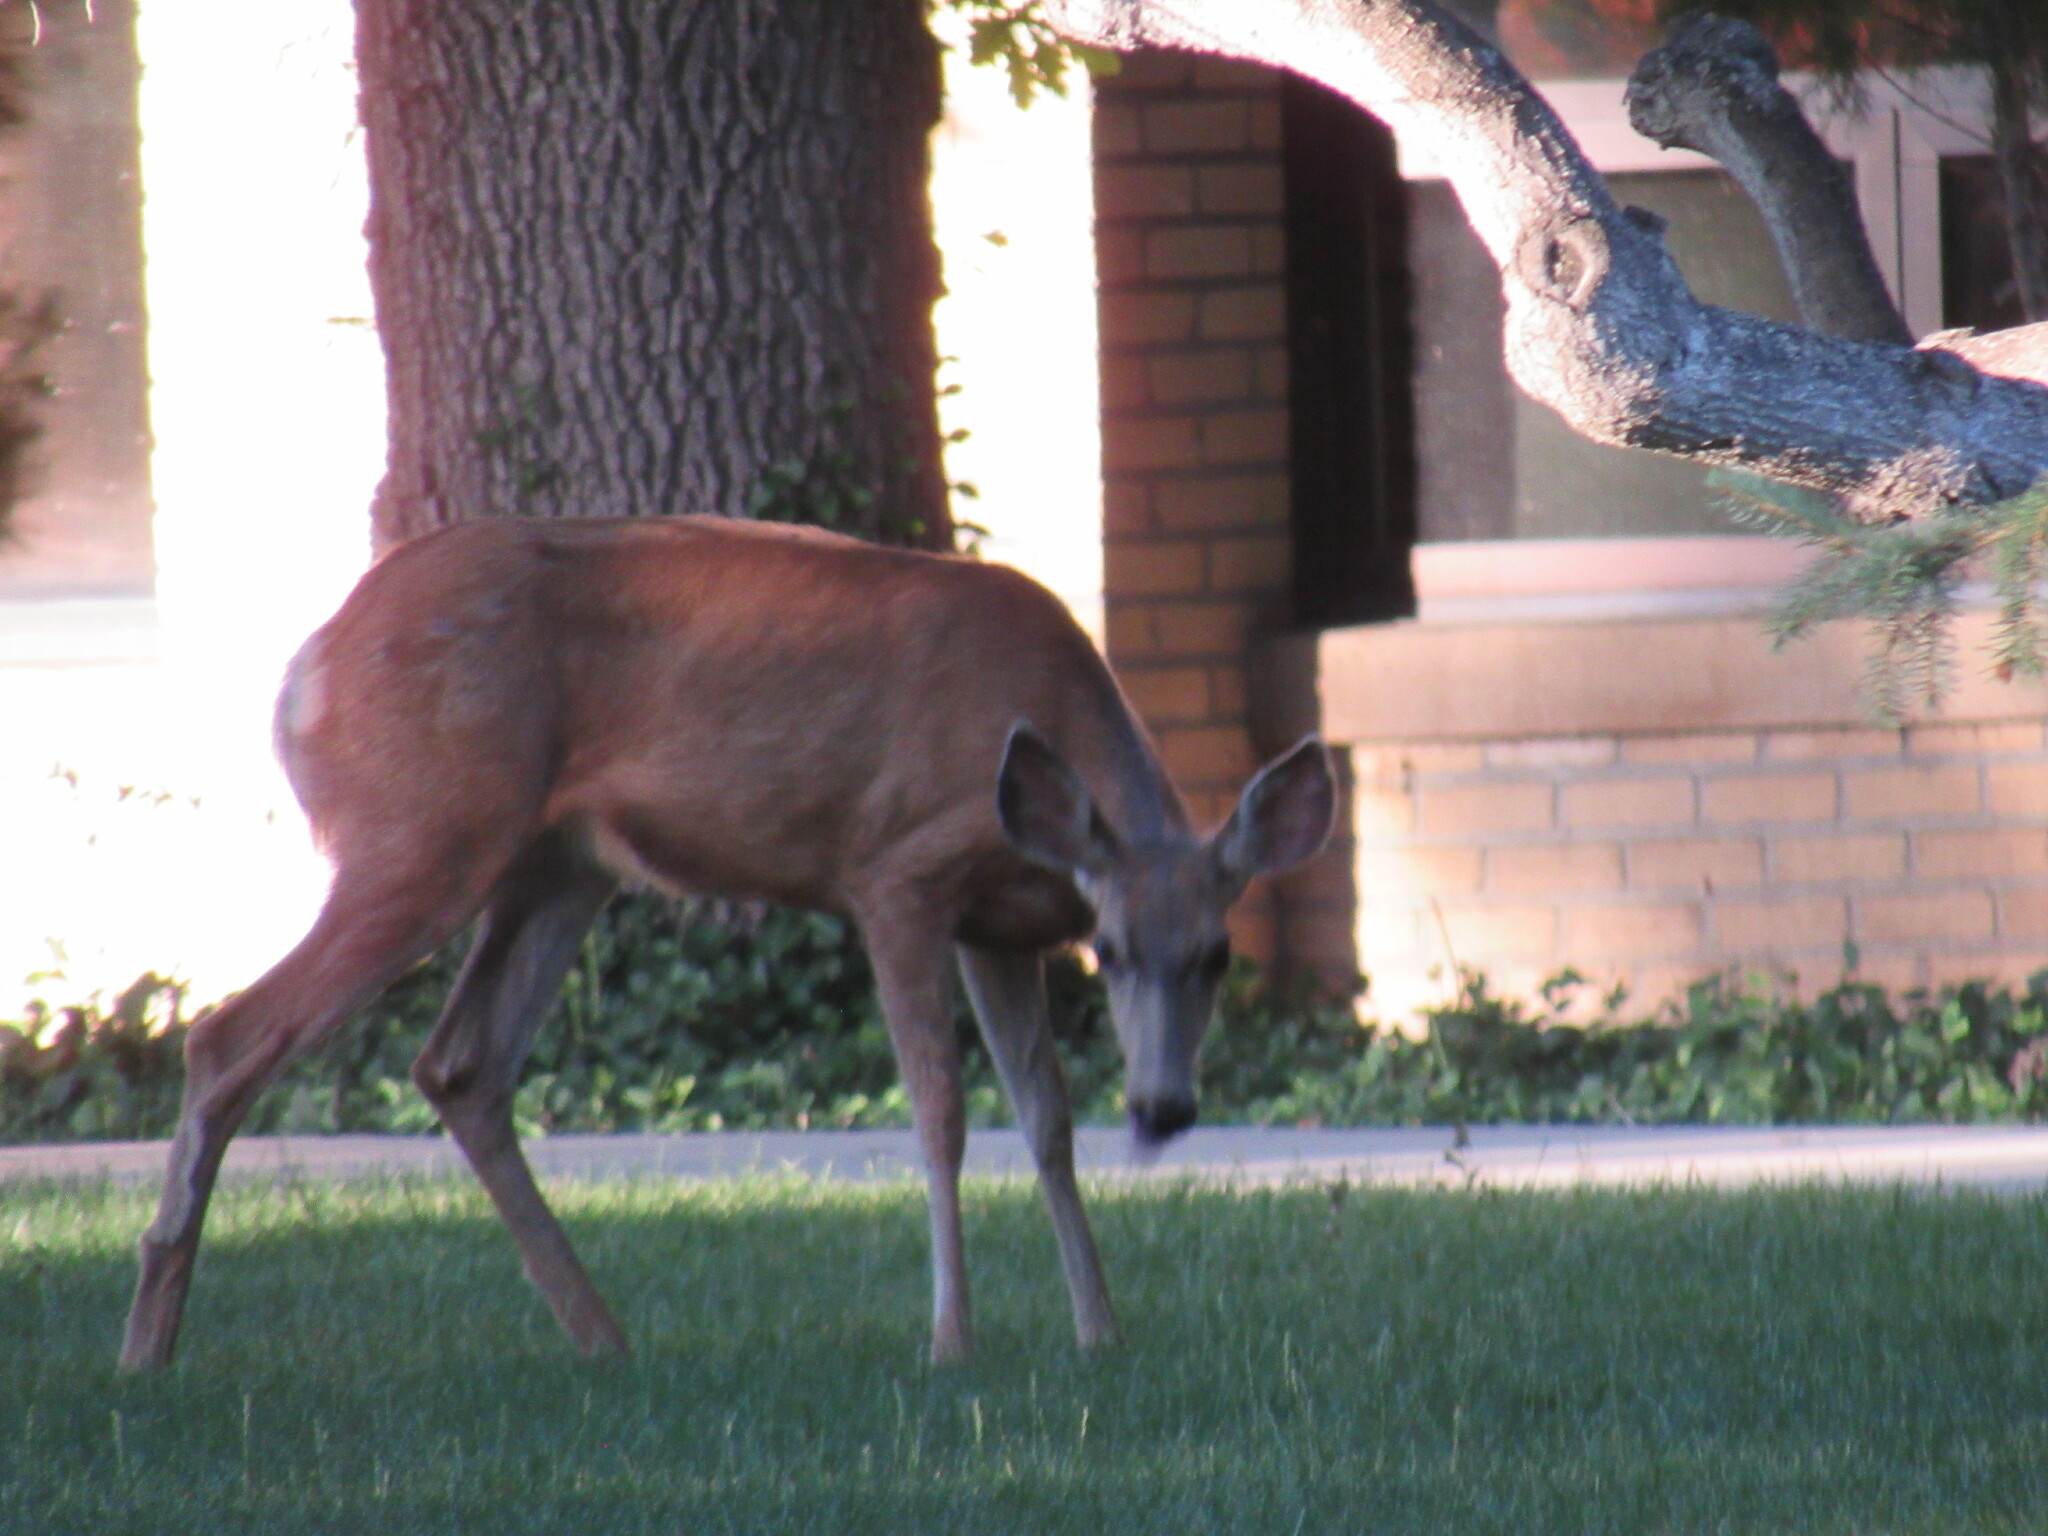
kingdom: Animalia
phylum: Chordata
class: Mammalia
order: Artiodactyla
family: Cervidae
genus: Odocoileus
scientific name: Odocoileus hemionus
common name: Mule deer
